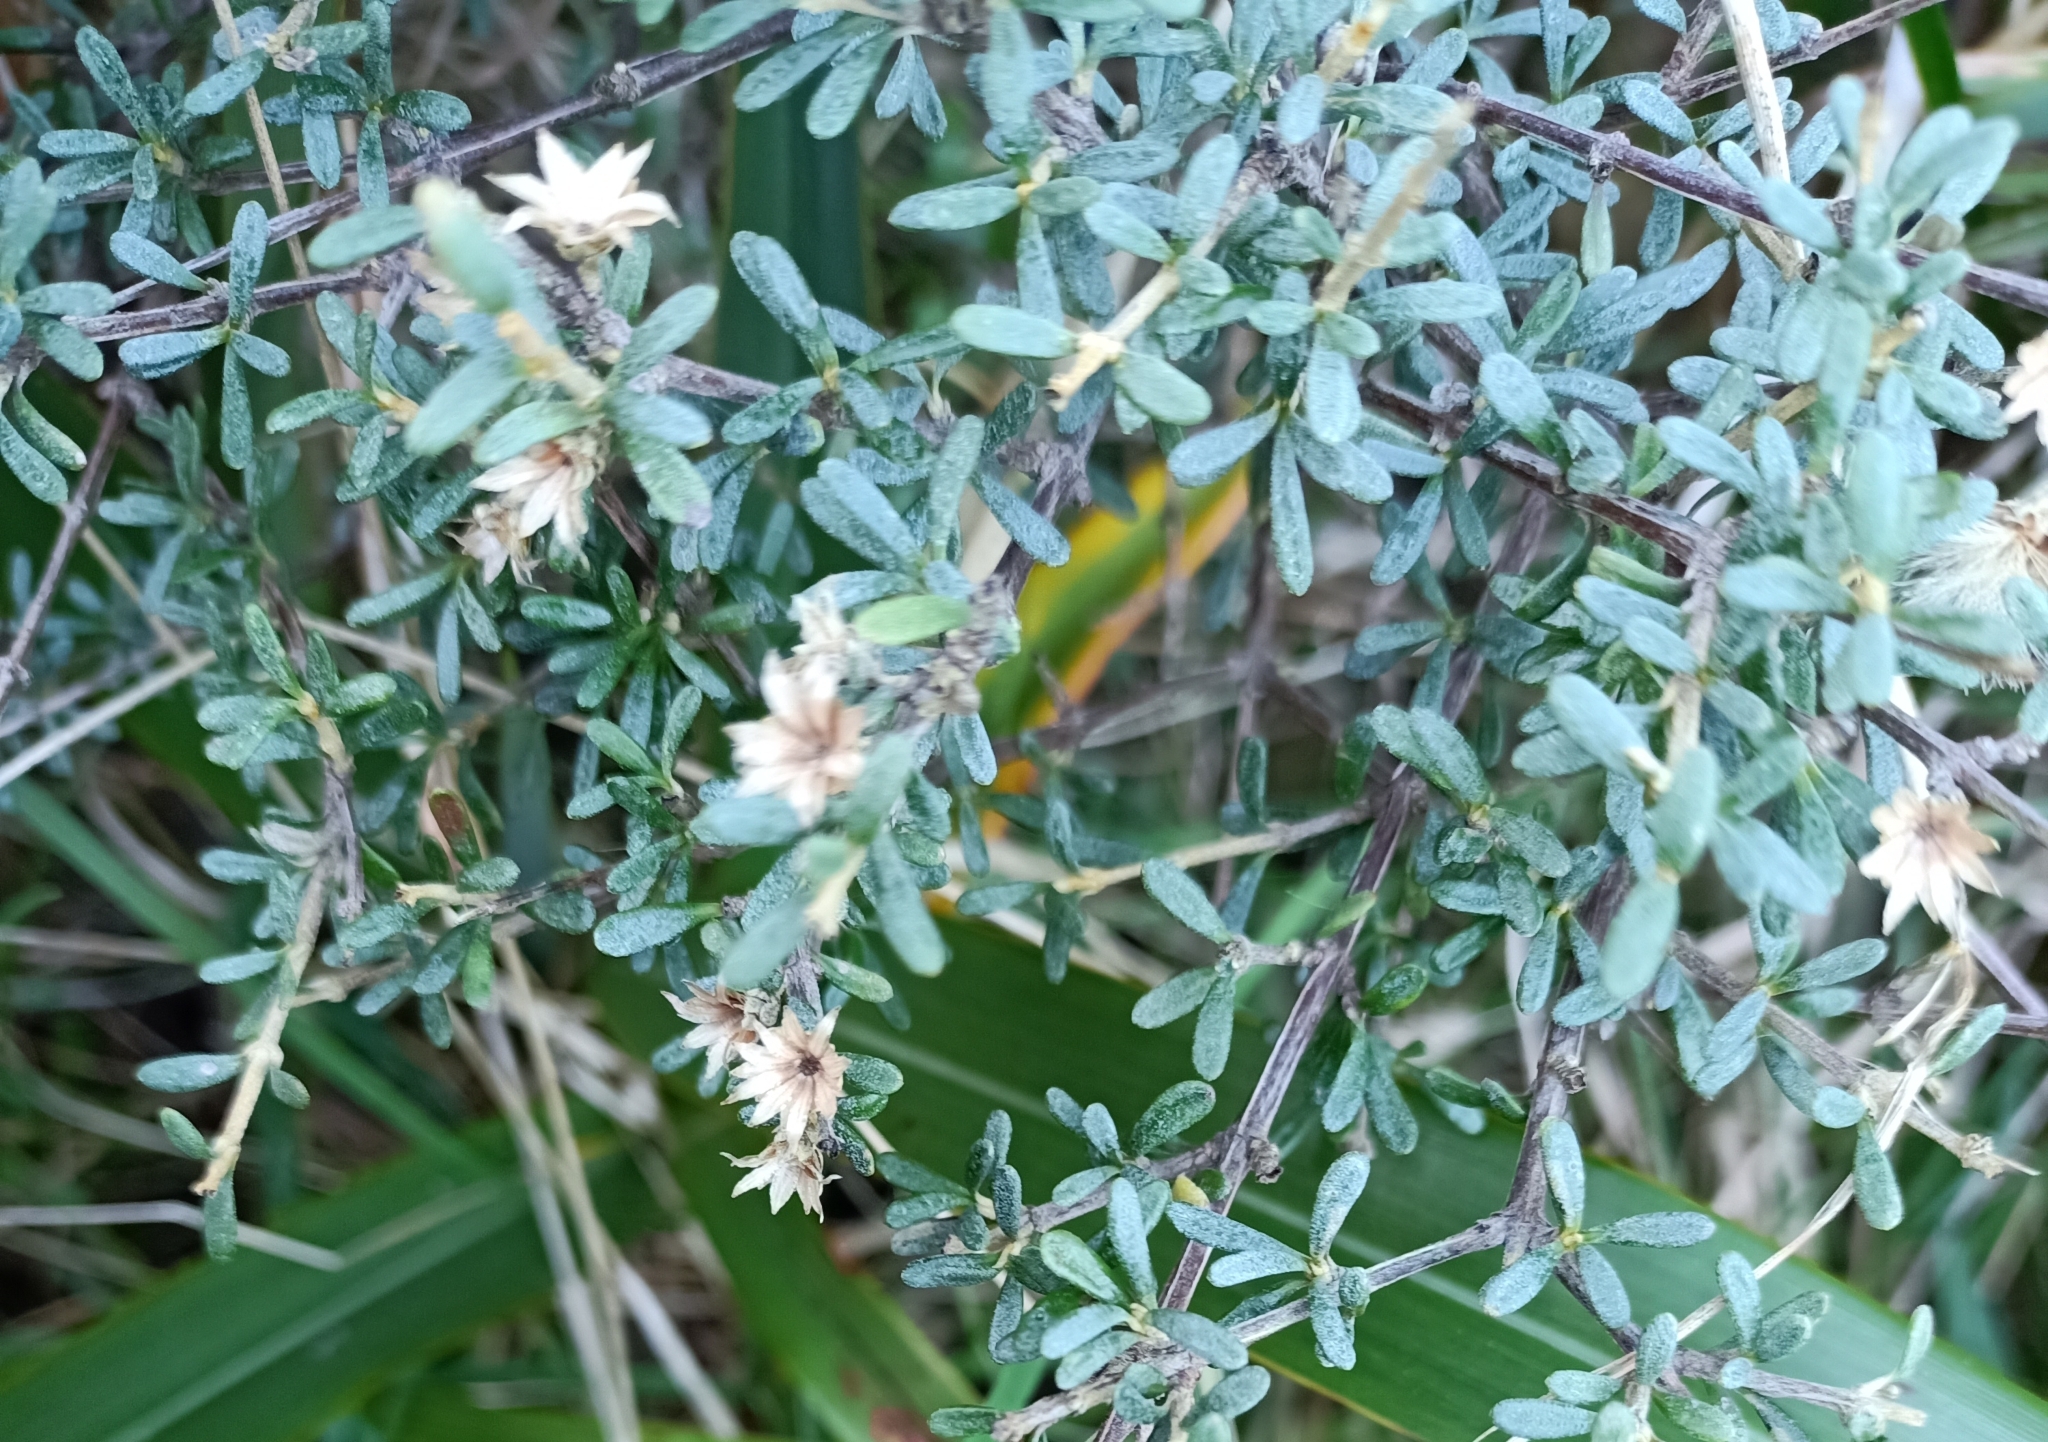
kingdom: Plantae
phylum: Tracheophyta
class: Magnoliopsida
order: Asterales
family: Asteraceae
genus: Olearia
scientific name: Olearia solandri
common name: Coastal daisybush
